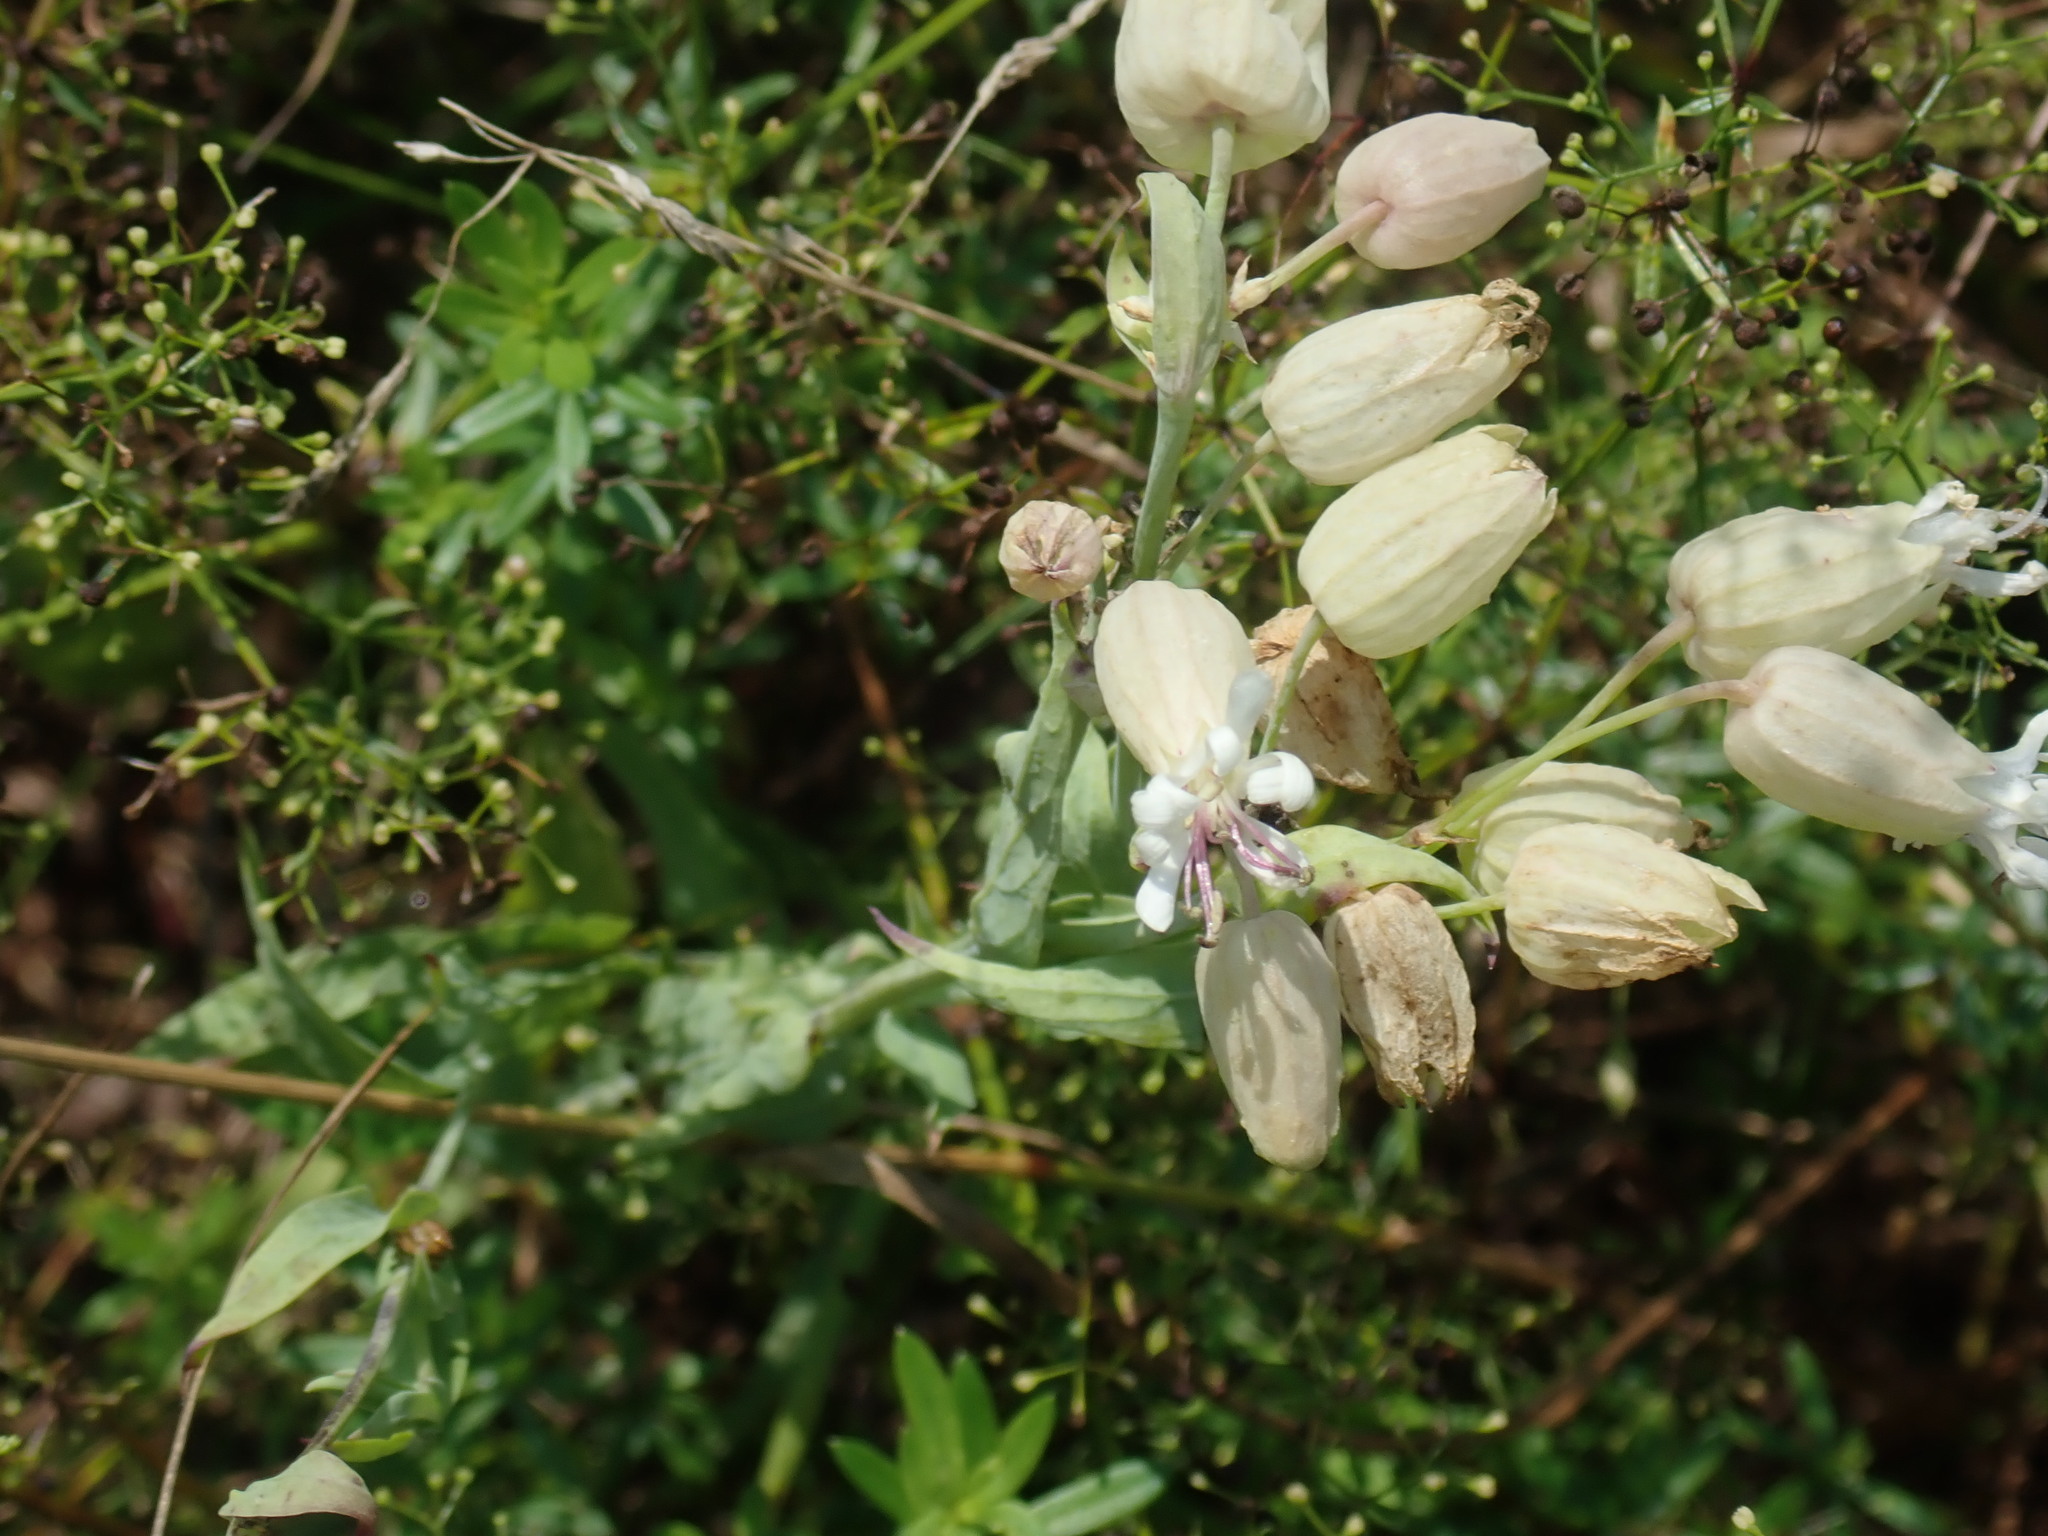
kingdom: Plantae
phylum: Tracheophyta
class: Magnoliopsida
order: Caryophyllales
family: Caryophyllaceae
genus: Silene
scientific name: Silene vulgaris
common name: Bladder campion
